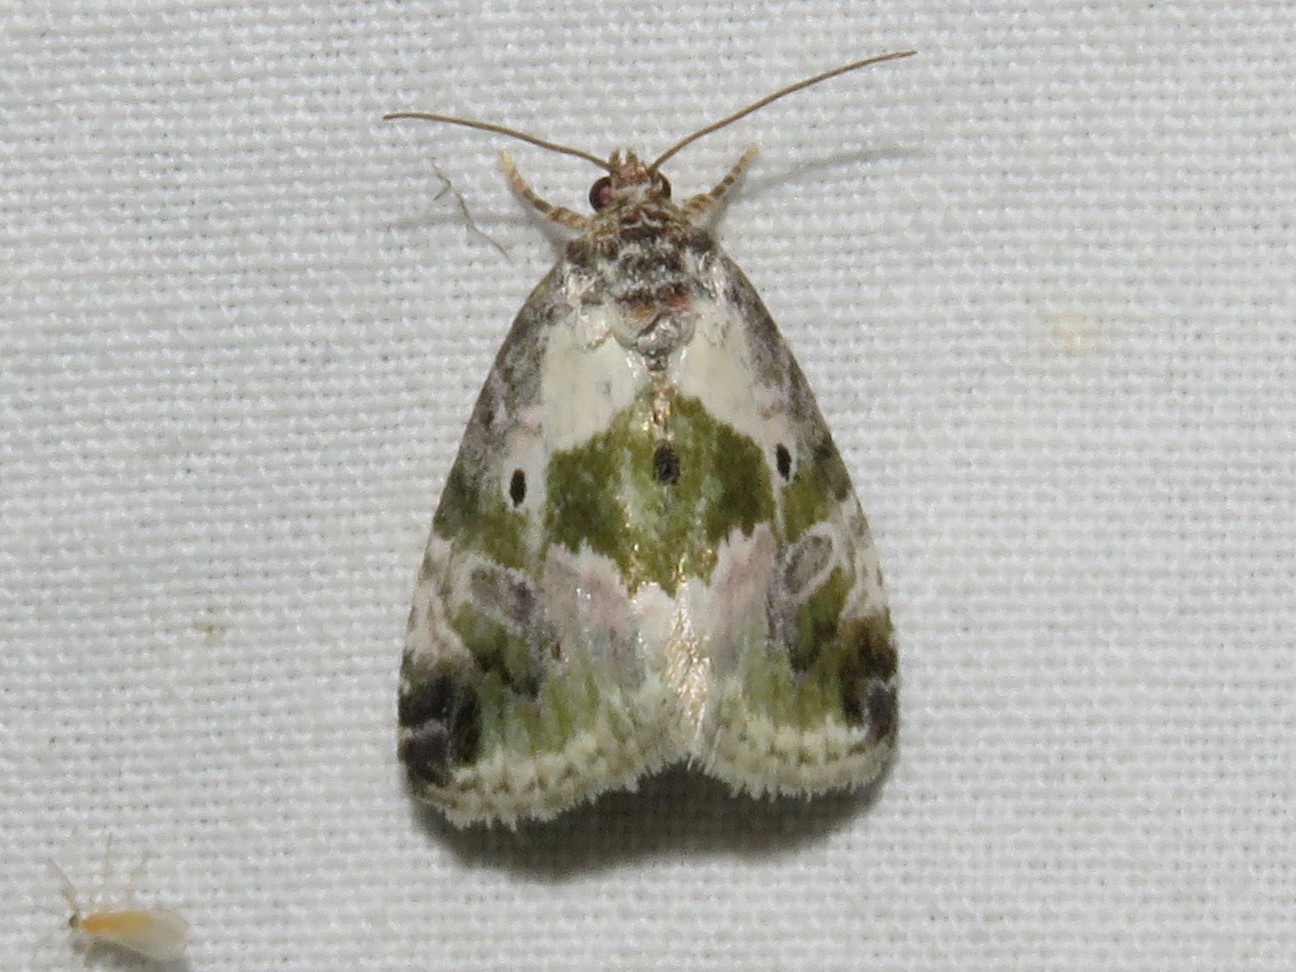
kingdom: Animalia
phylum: Arthropoda
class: Insecta
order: Lepidoptera
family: Noctuidae
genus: Maliattha
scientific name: Maliattha synochitis
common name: Black-dotted glyph
